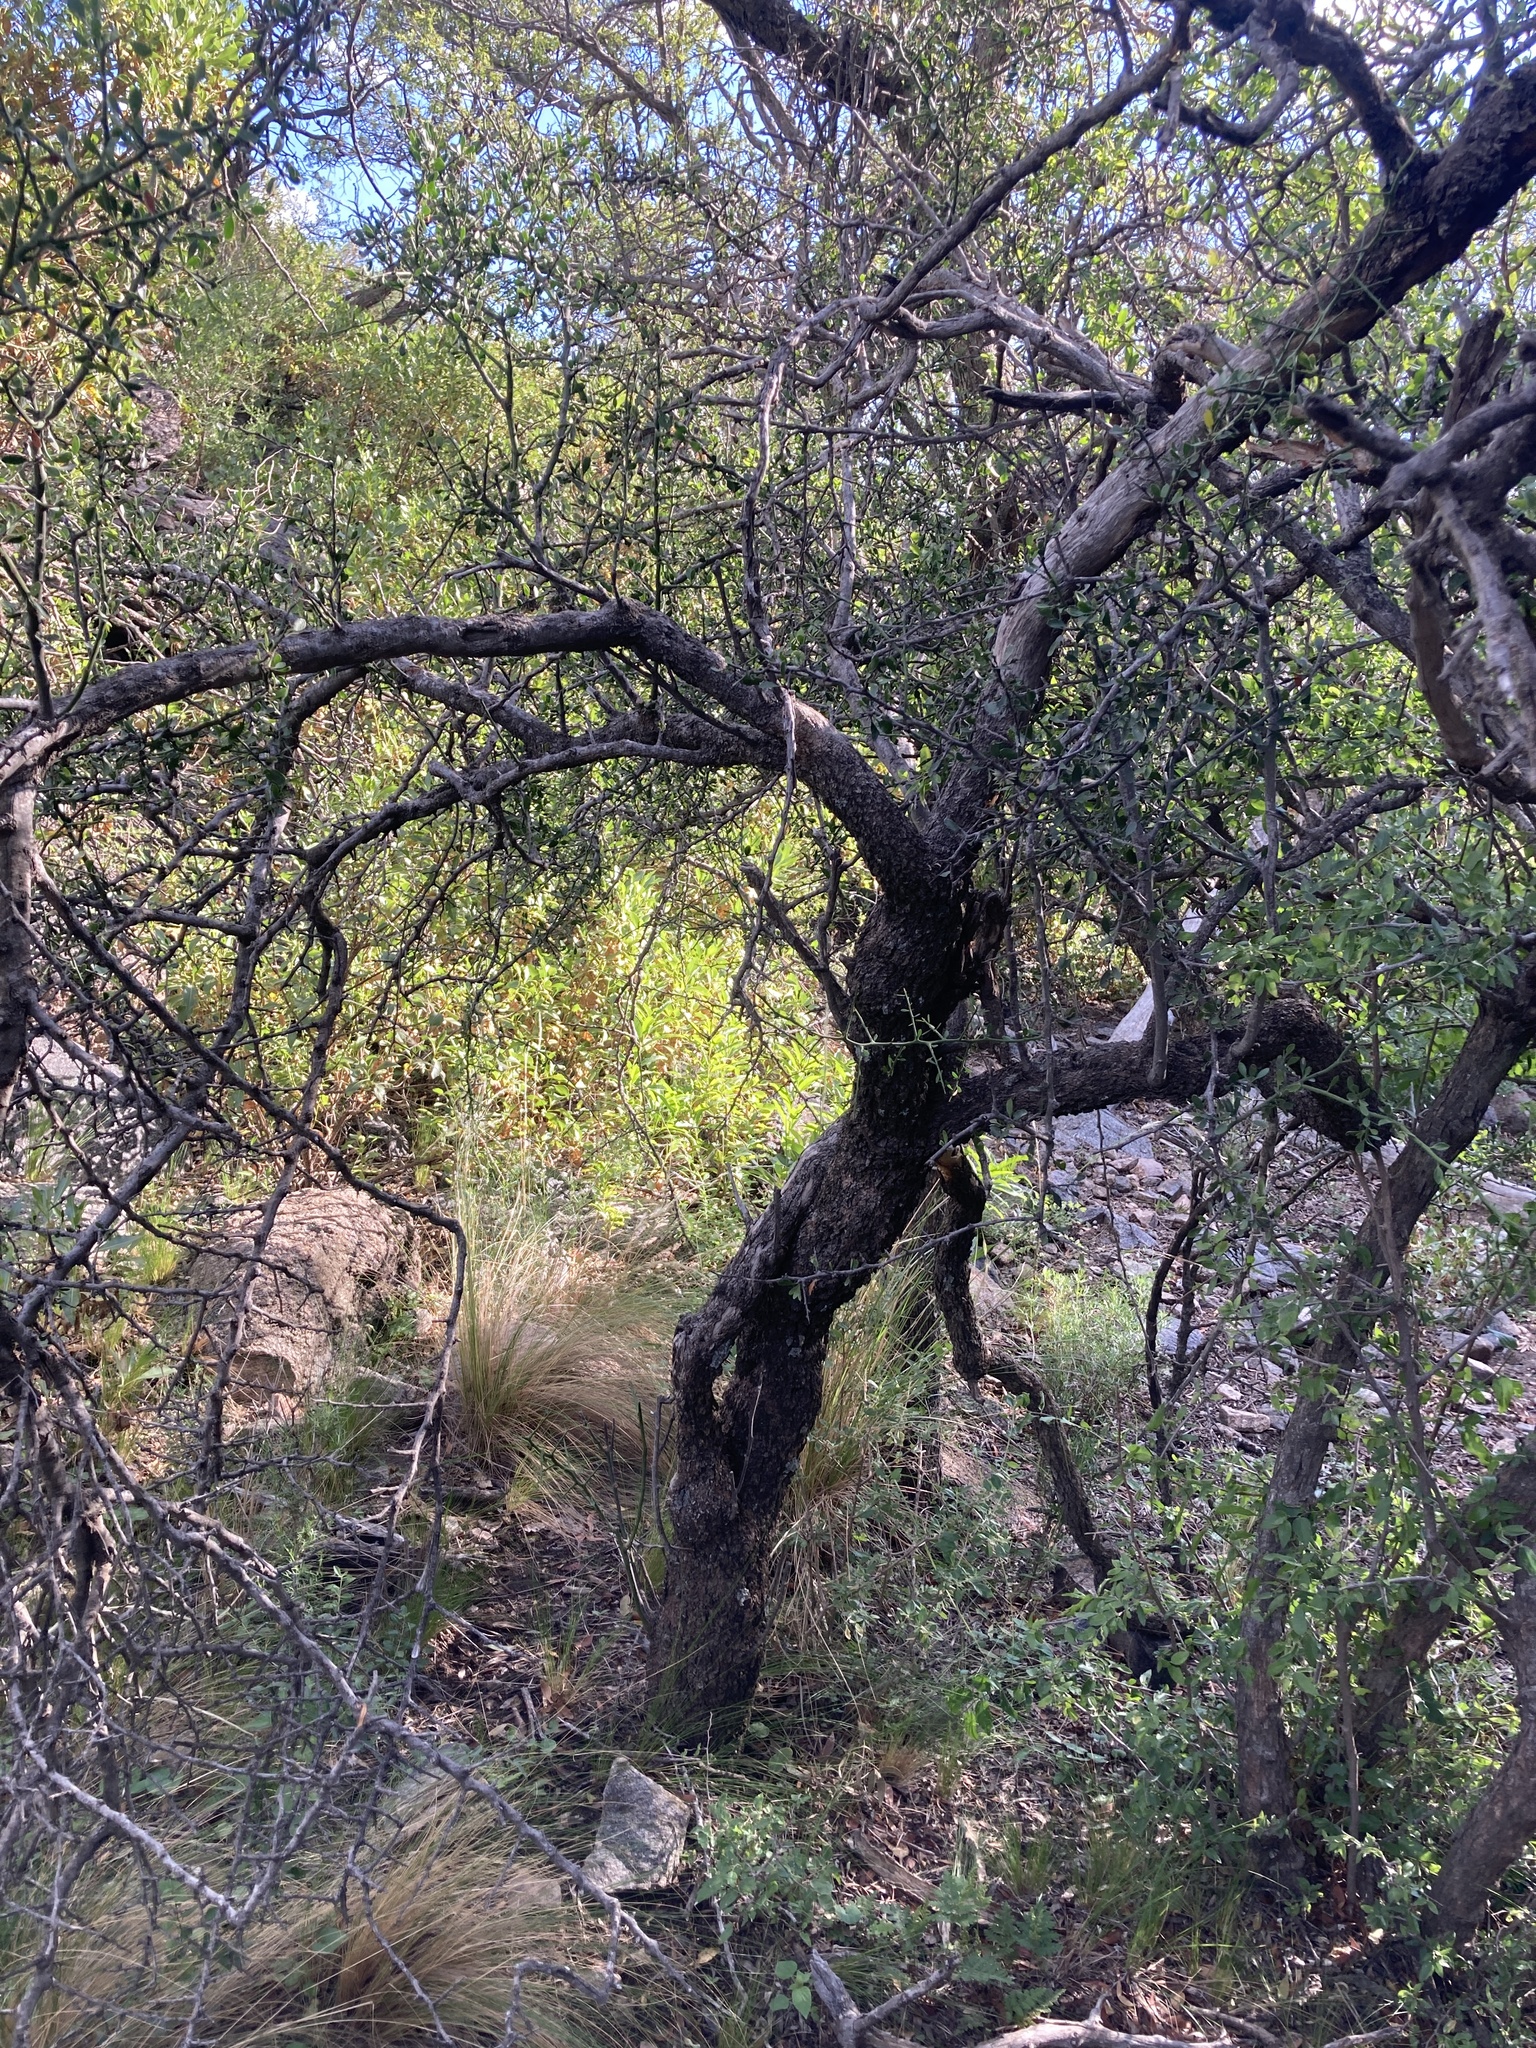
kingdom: Plantae
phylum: Tracheophyta
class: Magnoliopsida
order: Celastrales
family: Celastraceae
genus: Monteverdia
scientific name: Monteverdia spinosa
